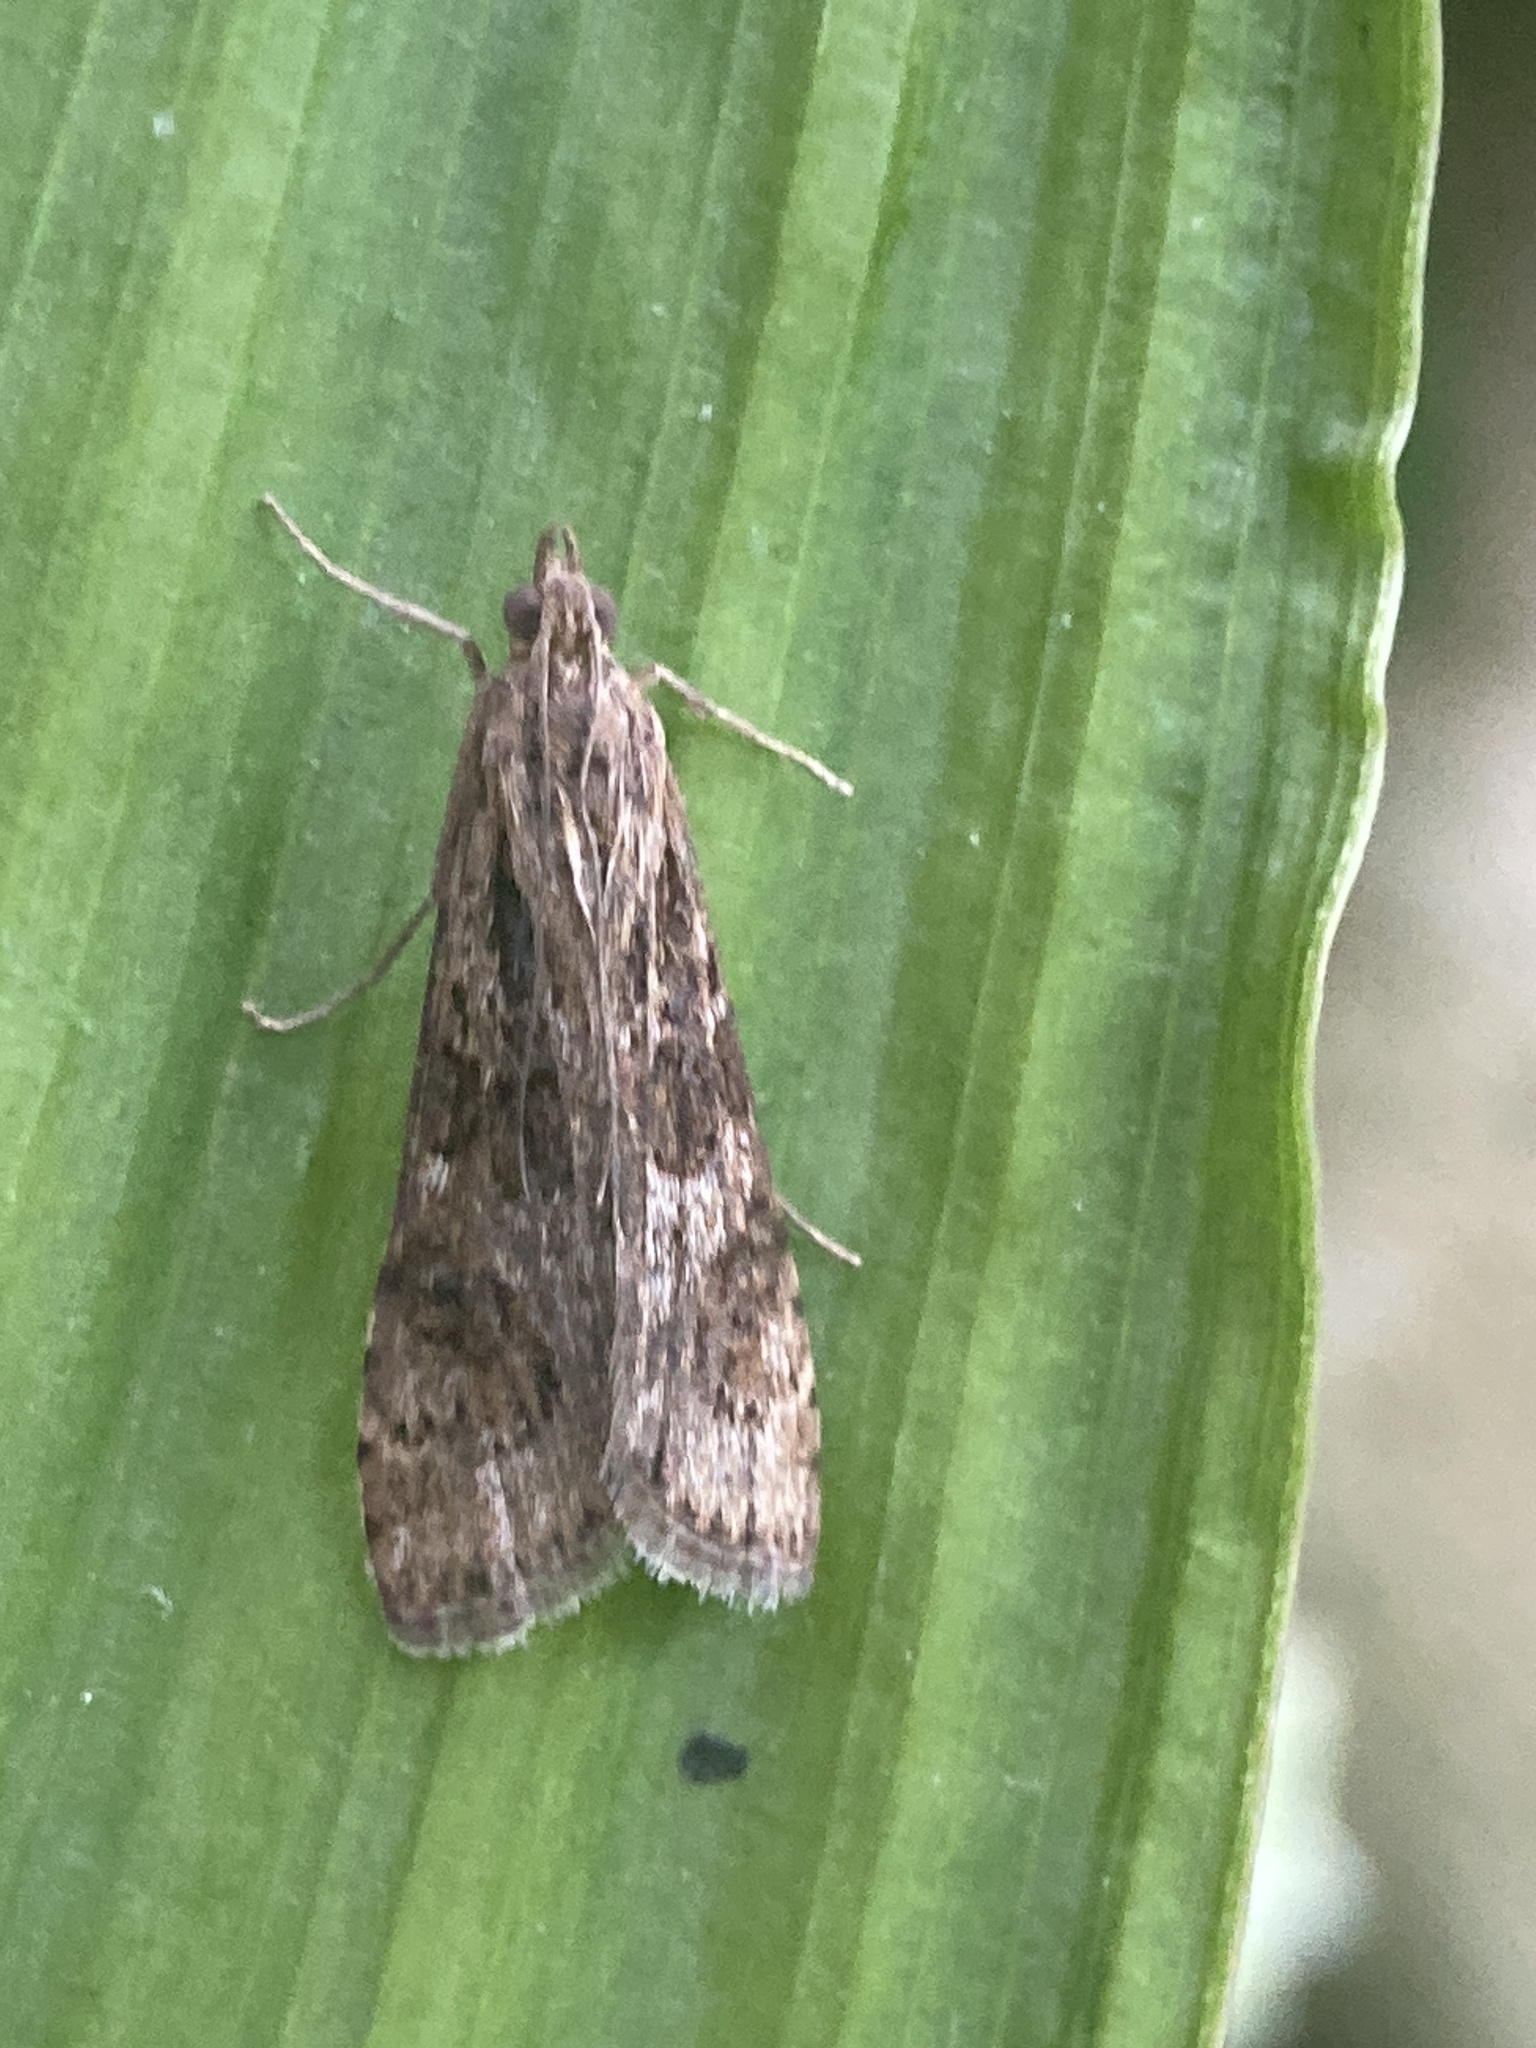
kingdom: Animalia
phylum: Arthropoda
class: Insecta
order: Lepidoptera
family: Crambidae
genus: Nomophila
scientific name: Nomophila noctuella
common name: Rush veneer
